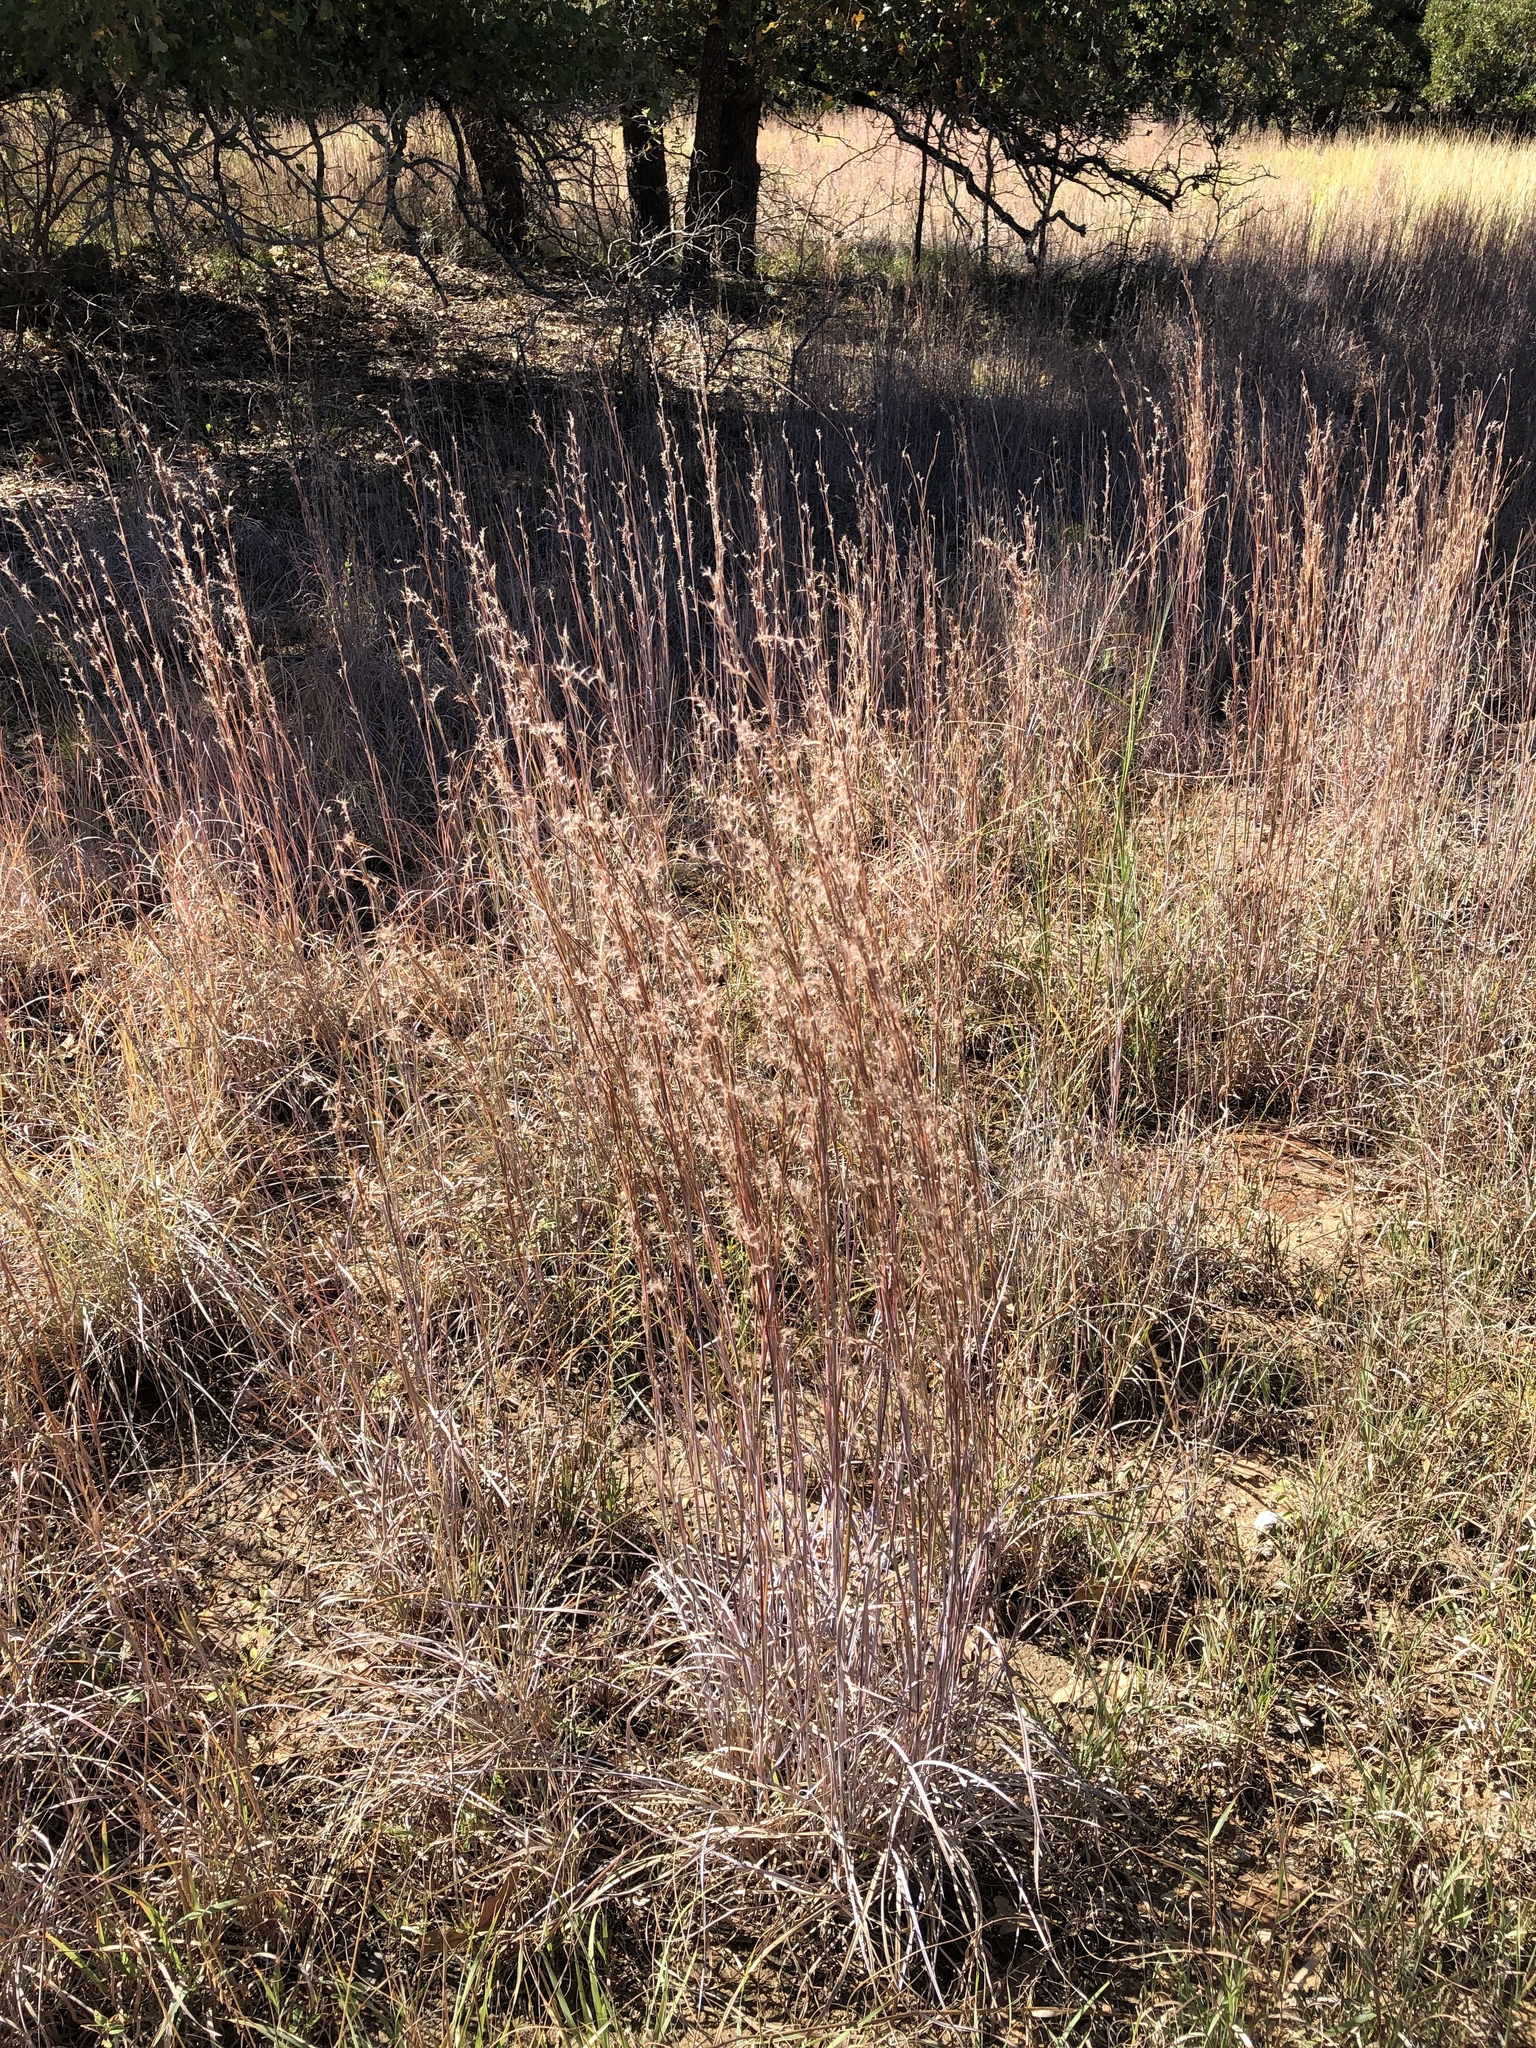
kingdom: Plantae
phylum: Tracheophyta
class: Liliopsida
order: Poales
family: Poaceae
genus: Schizachyrium
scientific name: Schizachyrium scoparium
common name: Little bluestem
